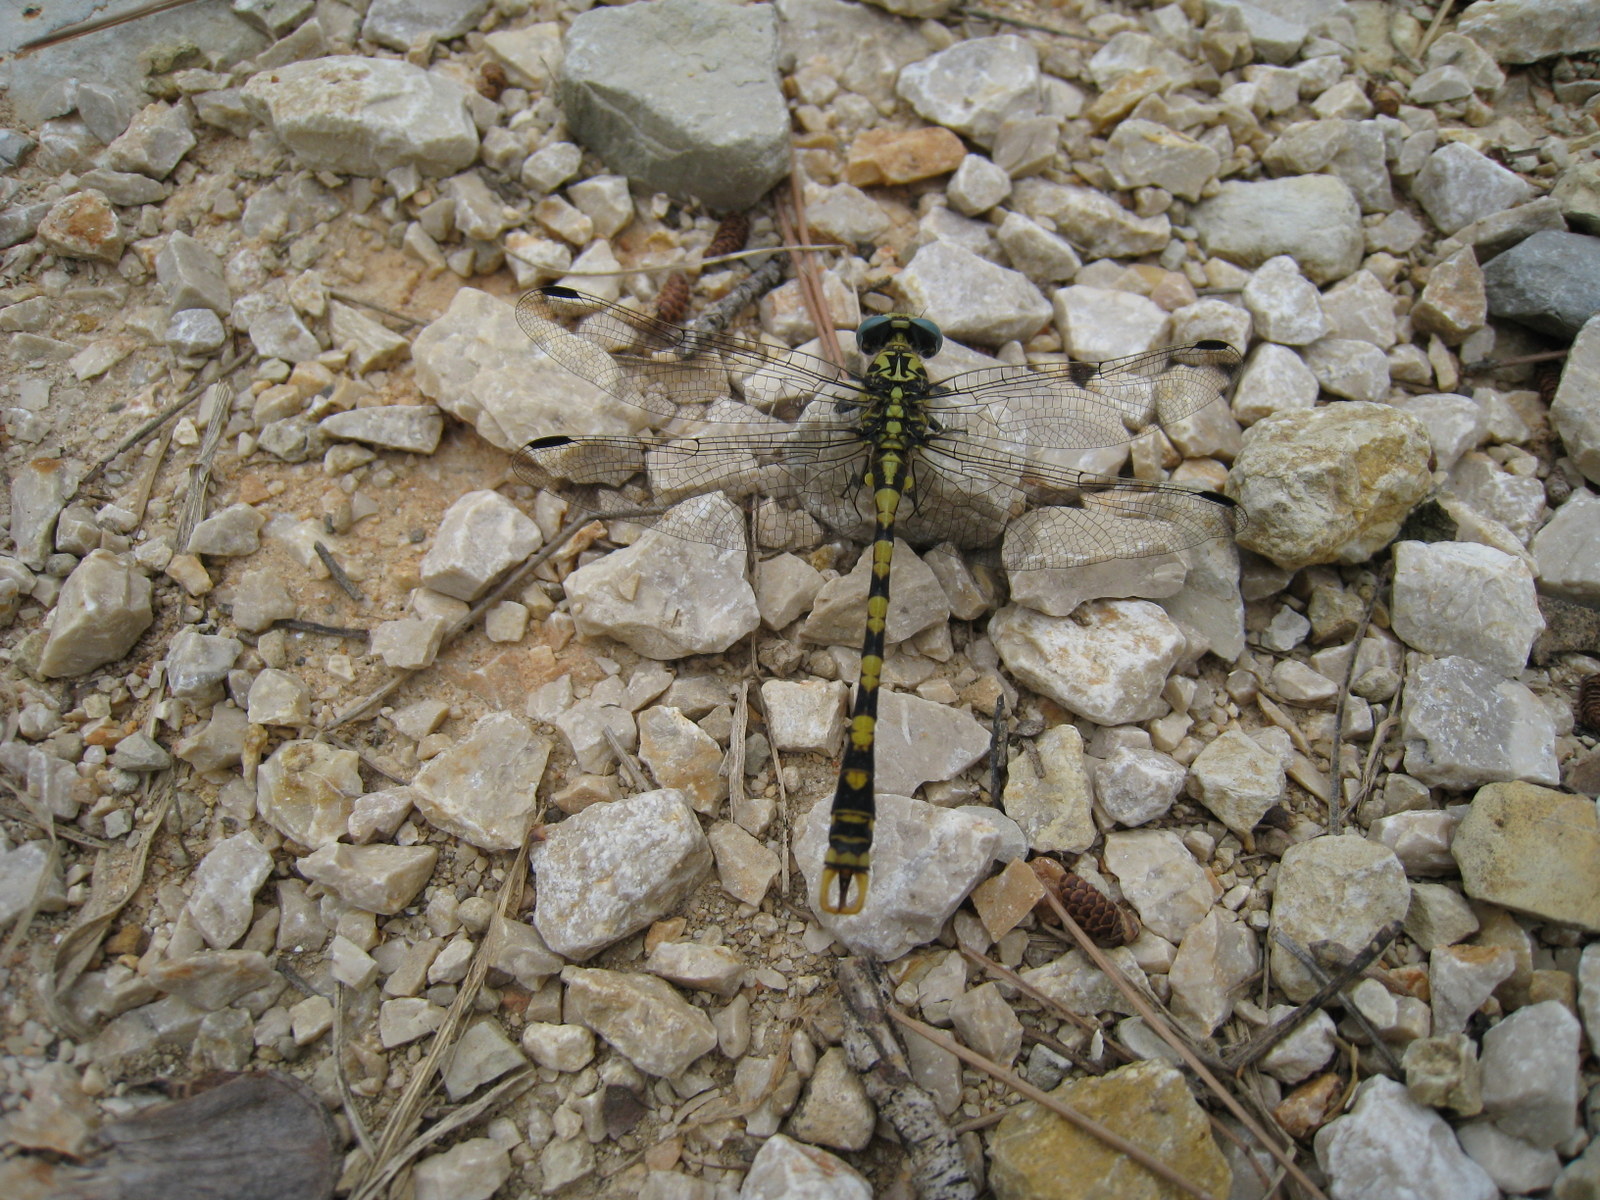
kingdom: Animalia
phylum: Arthropoda
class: Insecta
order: Odonata
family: Gomphidae
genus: Onychogomphus
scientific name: Onychogomphus uncatus
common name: Large pincertail
